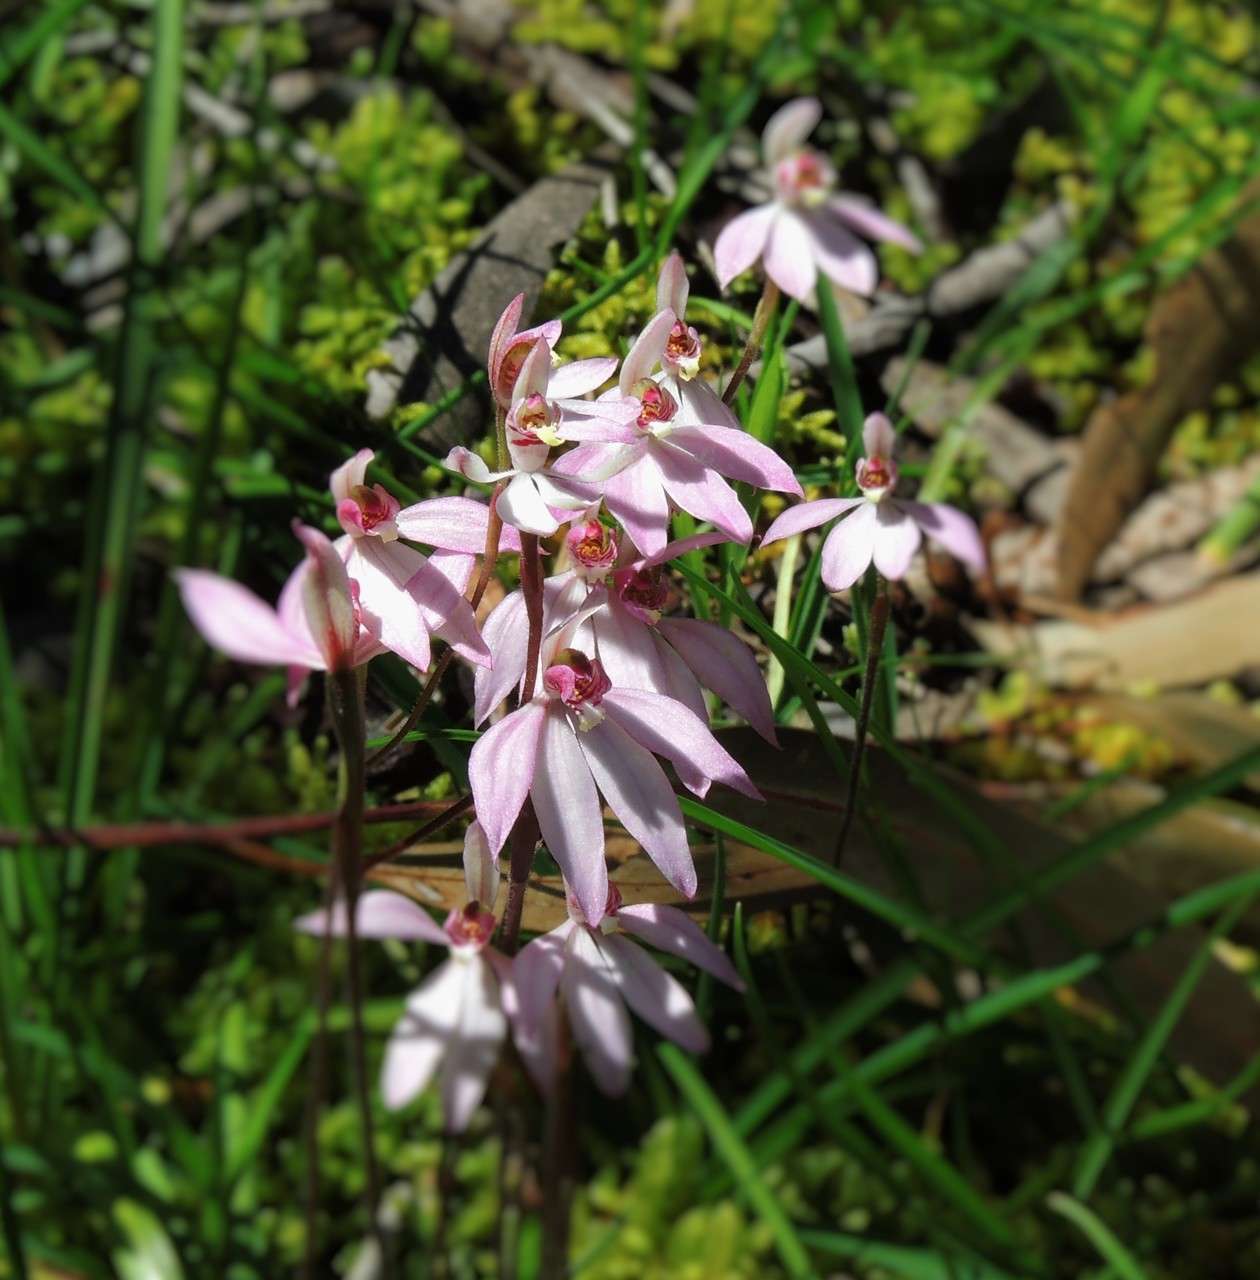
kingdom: Plantae
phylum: Tracheophyta
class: Liliopsida
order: Asparagales
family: Orchidaceae
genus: Caladenia
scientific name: Caladenia carnea
